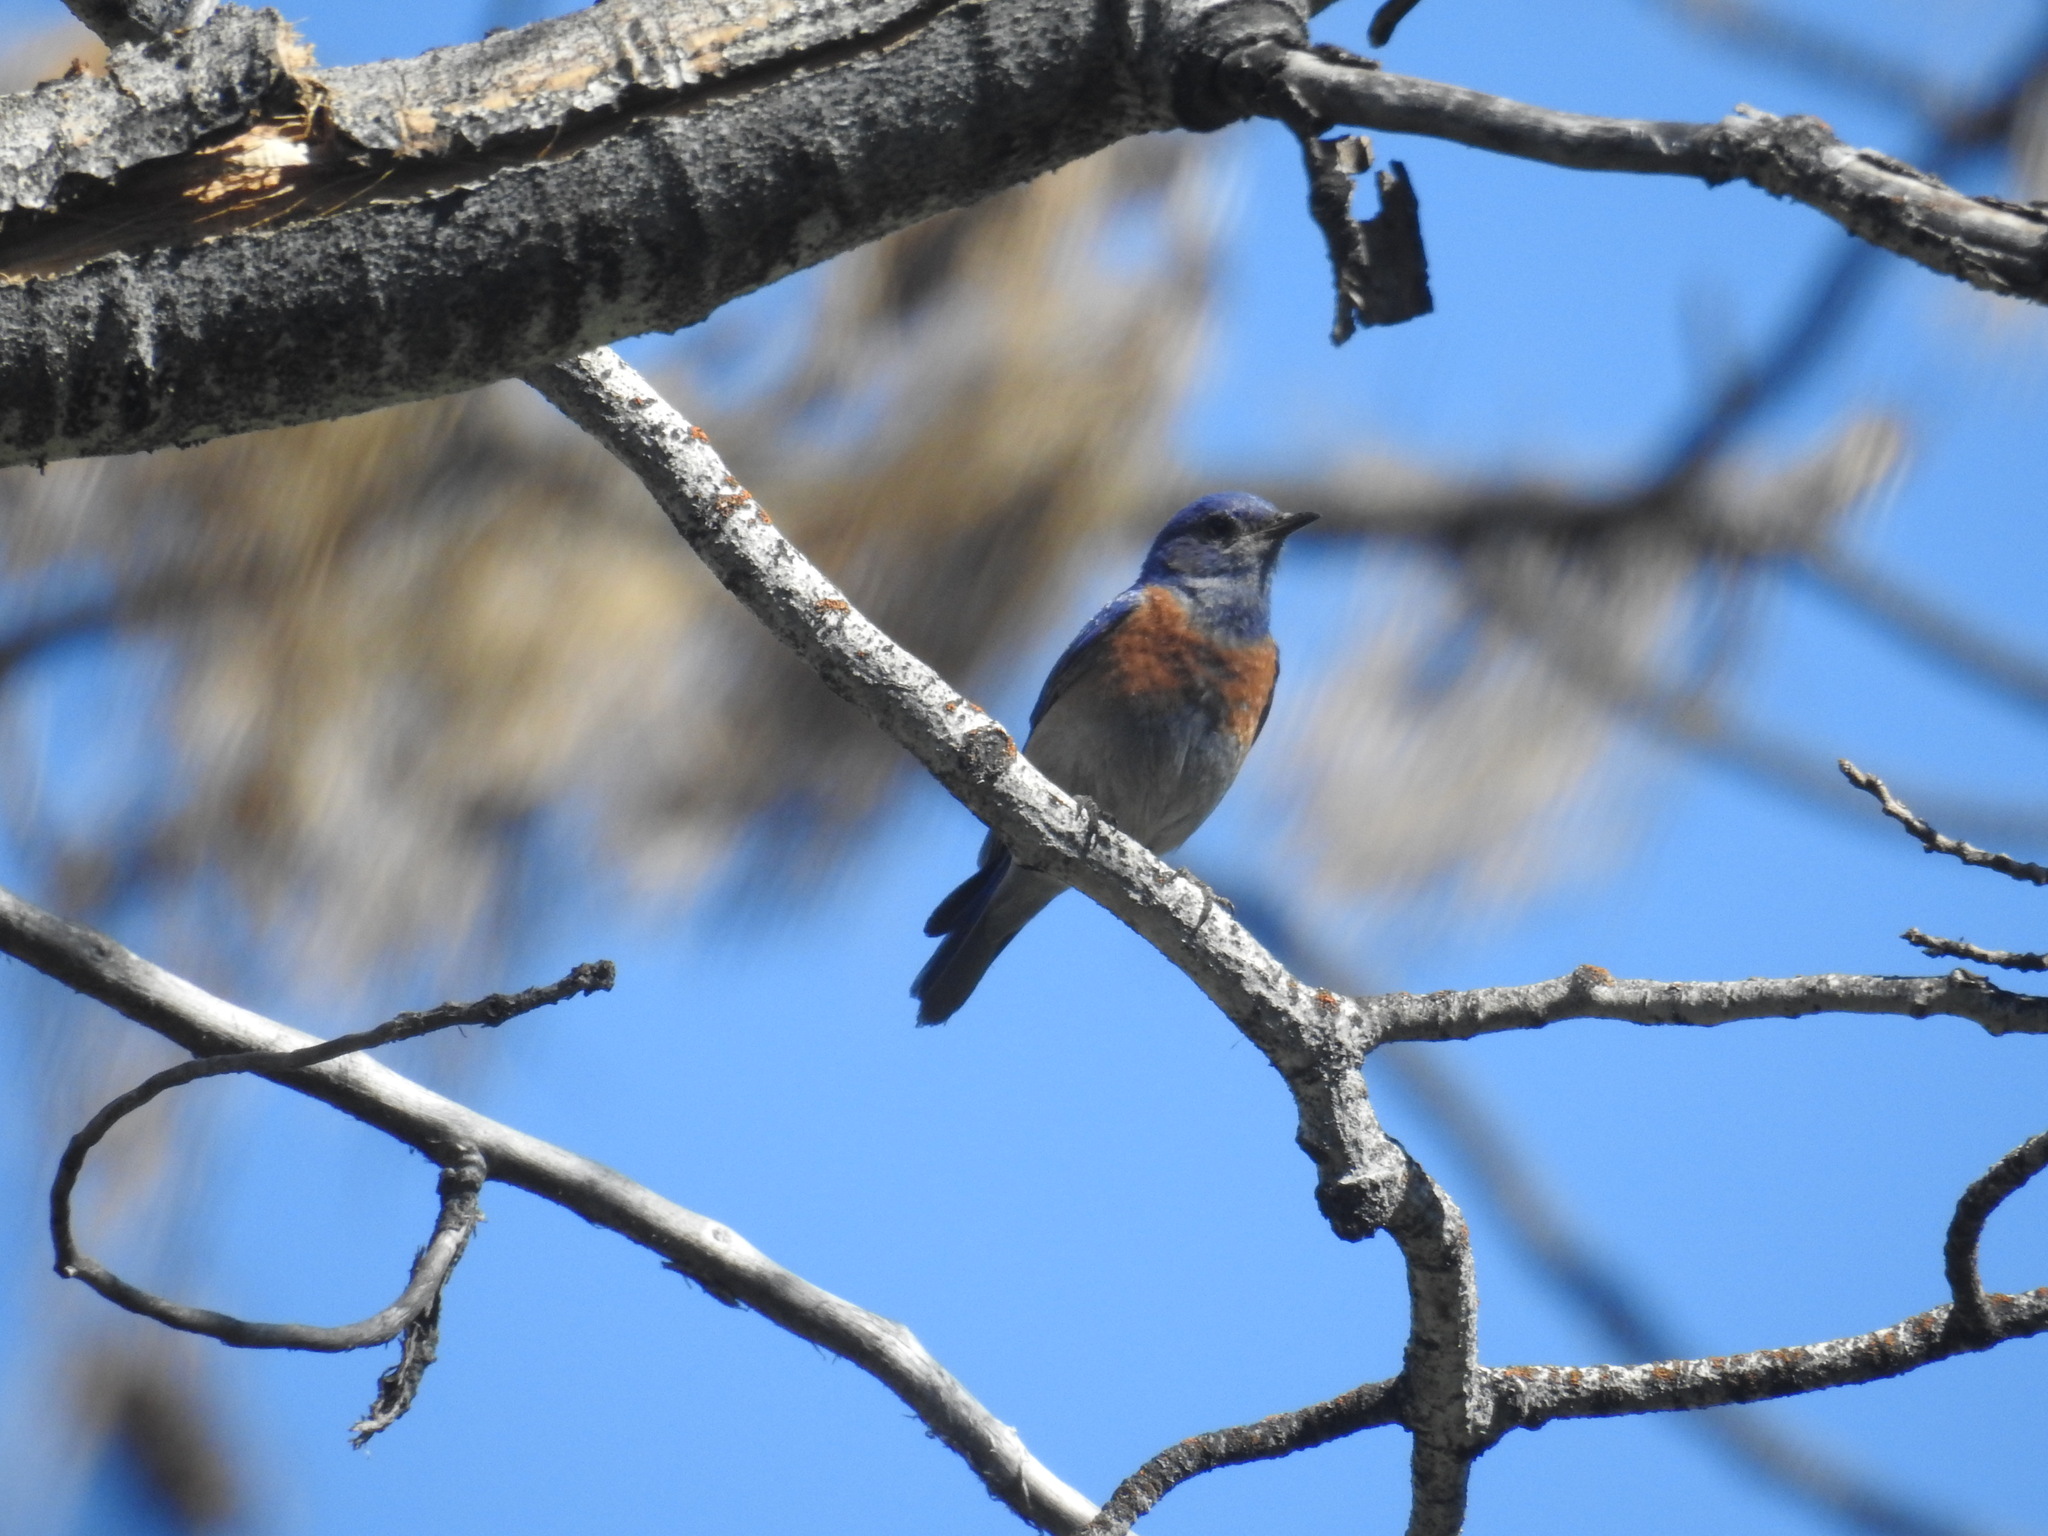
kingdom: Animalia
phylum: Chordata
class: Aves
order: Passeriformes
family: Turdidae
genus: Sialia
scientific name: Sialia mexicana
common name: Western bluebird
